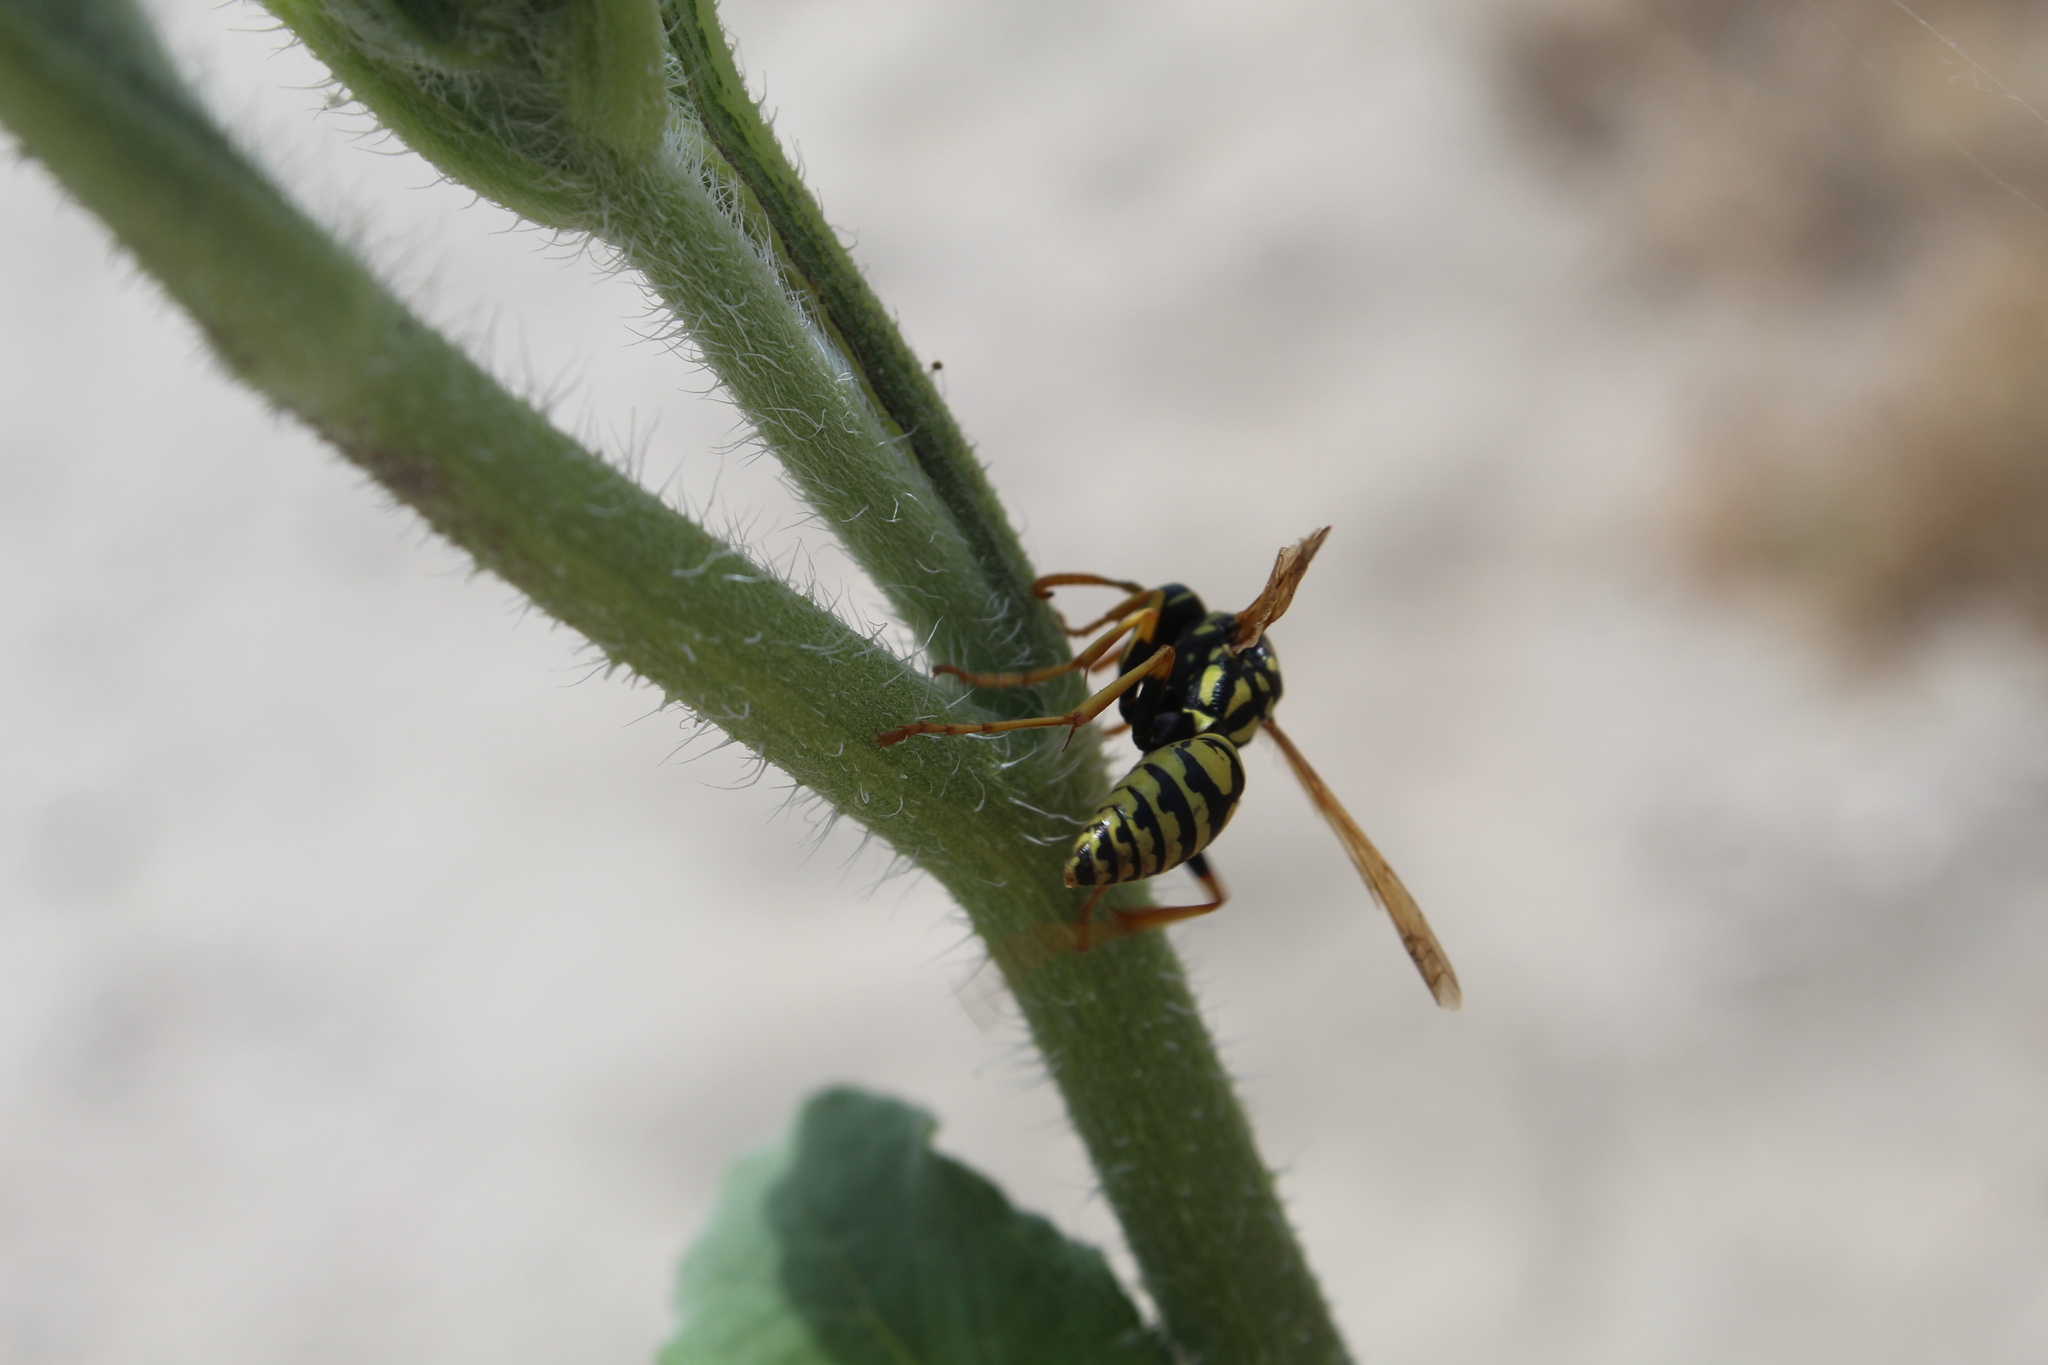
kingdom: Animalia
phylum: Arthropoda
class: Insecta
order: Hymenoptera
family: Eumenidae
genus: Polistes
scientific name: Polistes dominula
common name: Paper wasp
